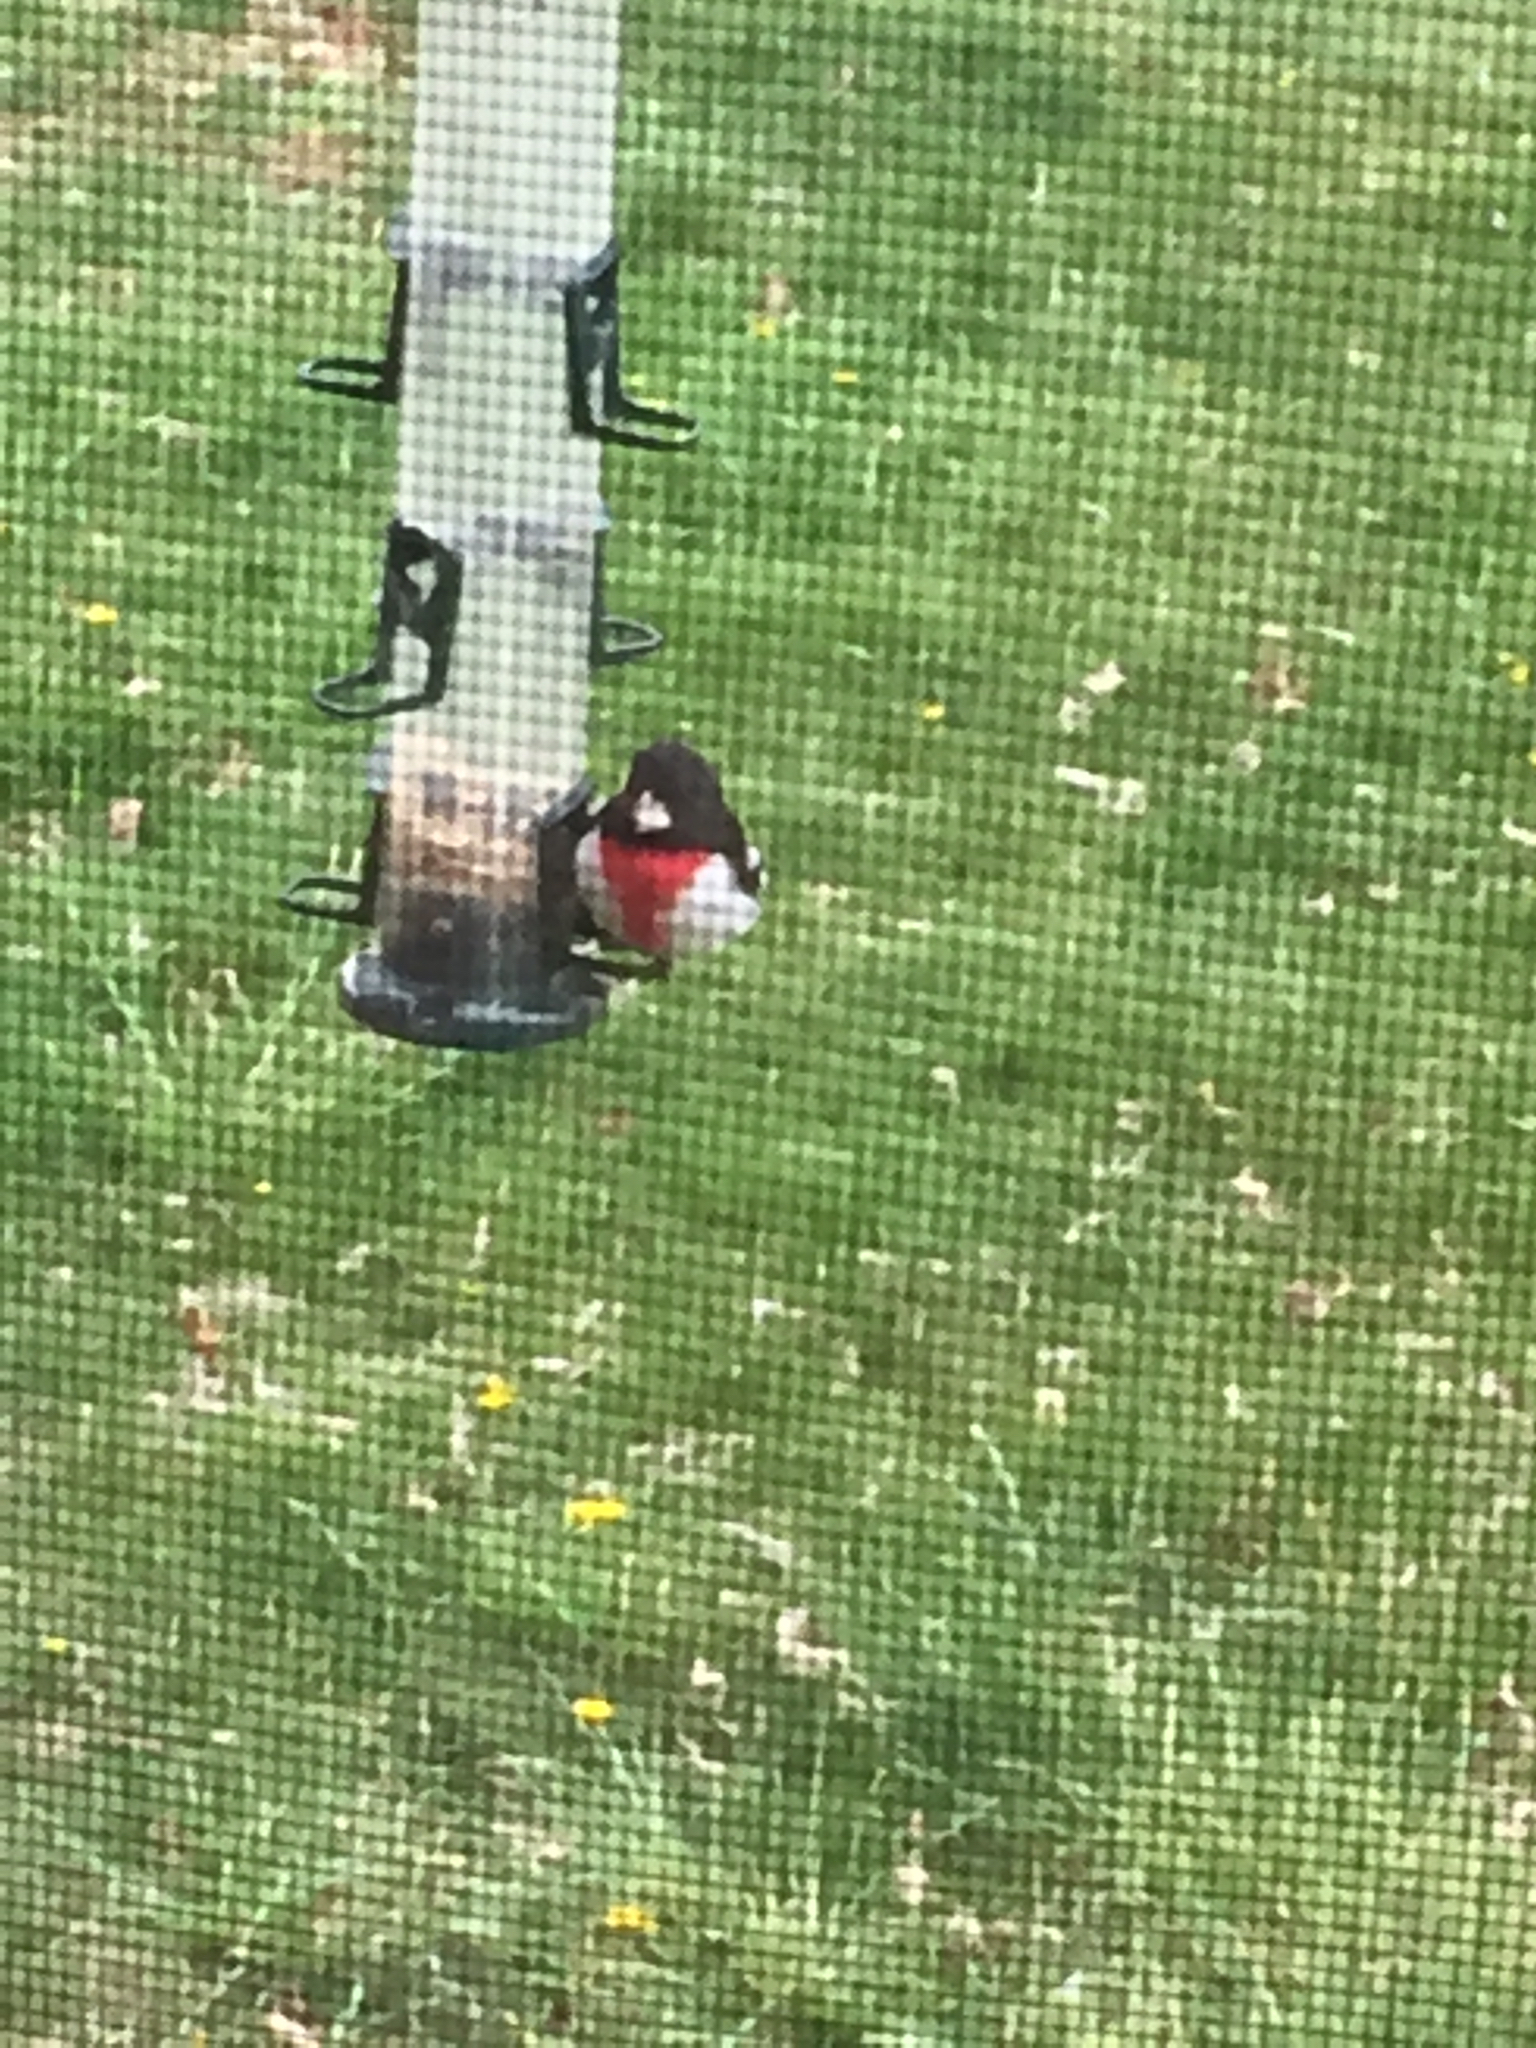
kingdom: Animalia
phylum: Chordata
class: Aves
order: Passeriformes
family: Cardinalidae
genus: Pheucticus
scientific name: Pheucticus ludovicianus
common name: Rose-breasted grosbeak
